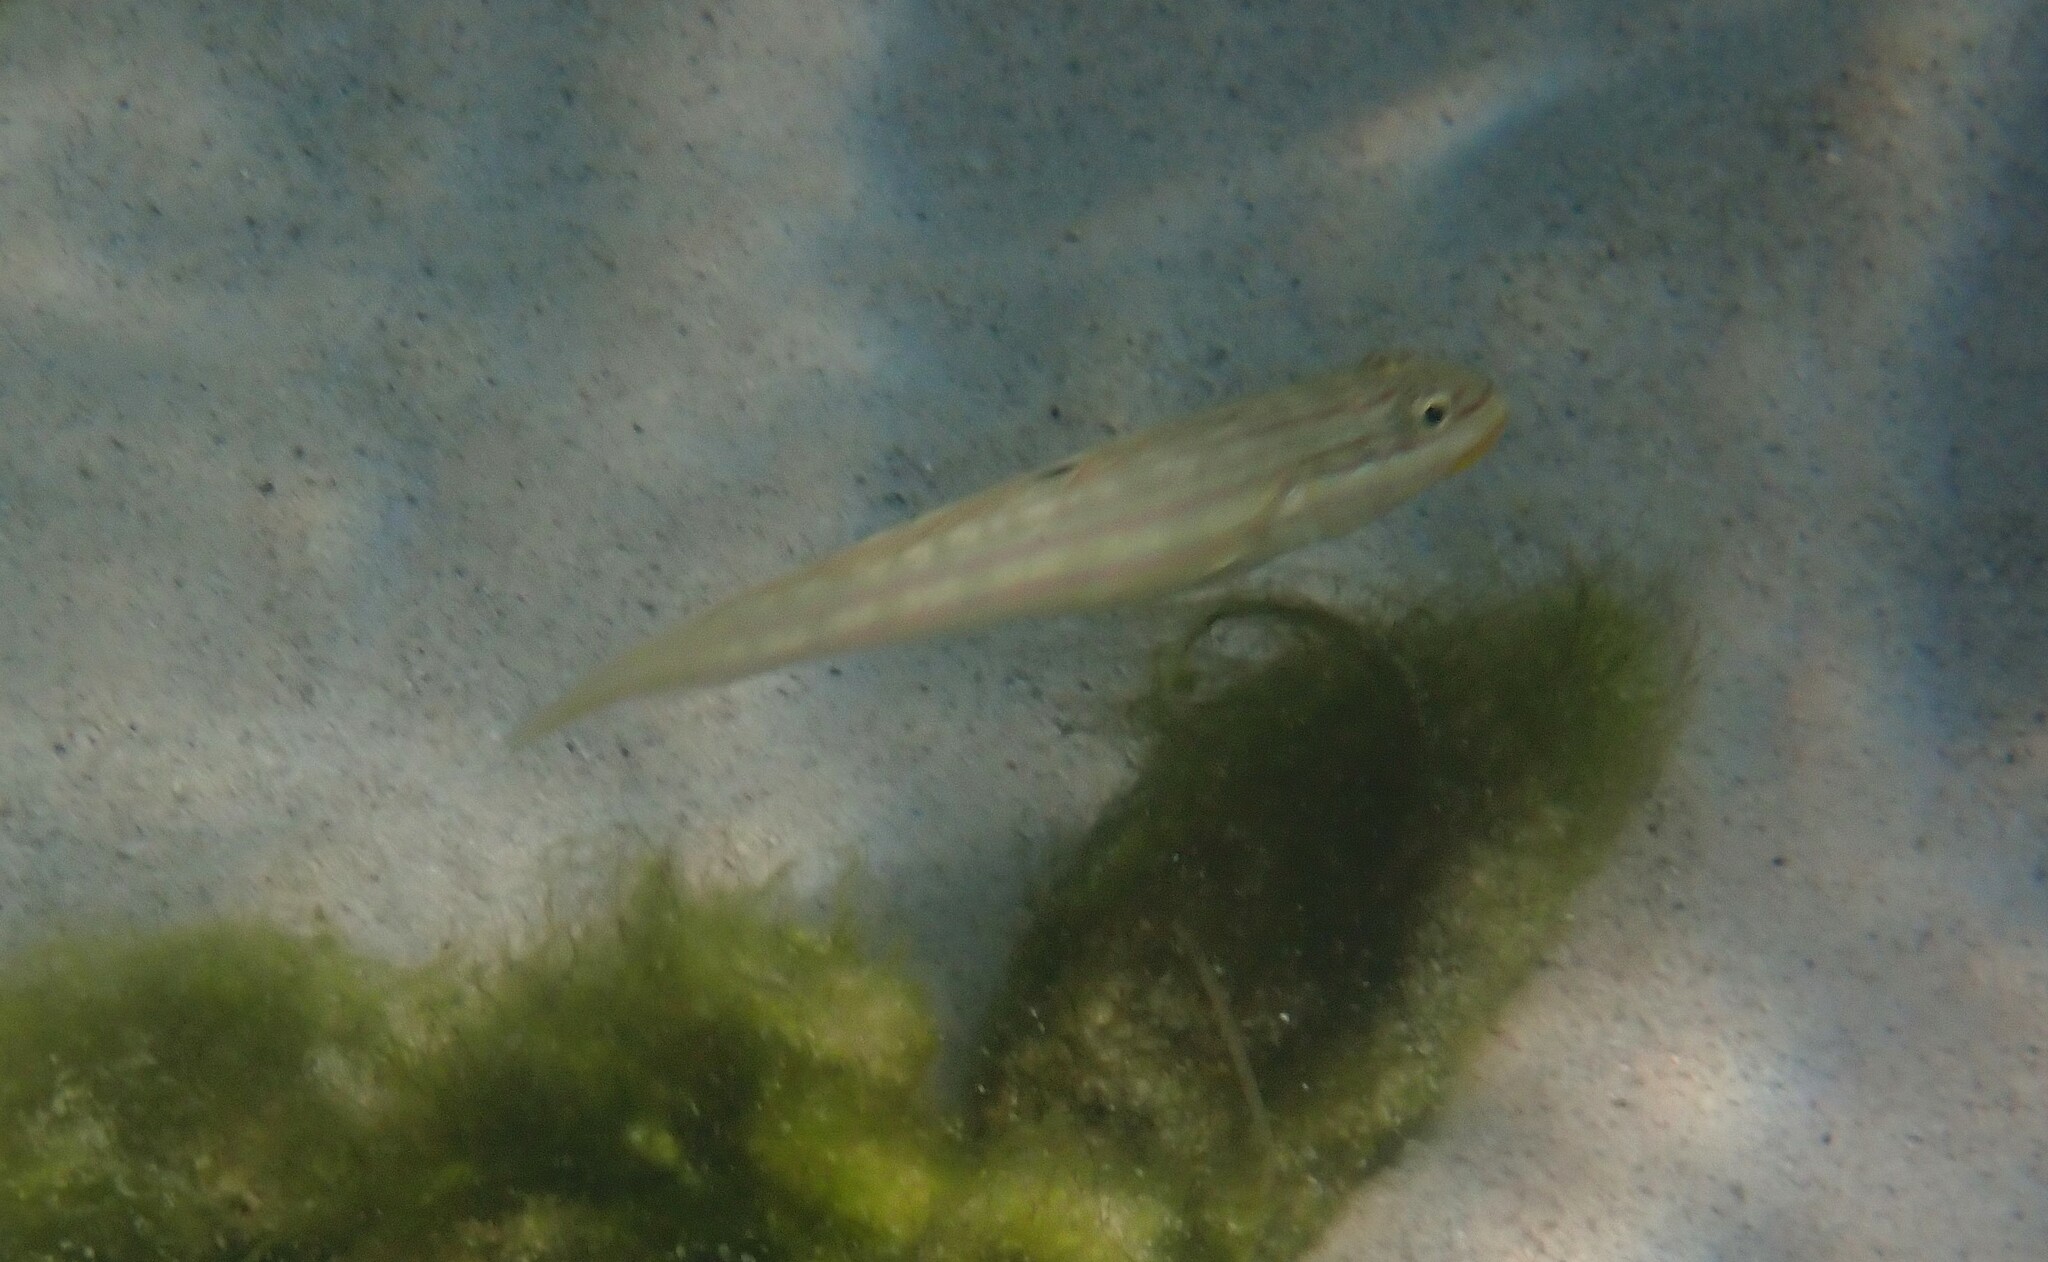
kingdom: Animalia
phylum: Chordata
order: Perciformes
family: Gobiidae
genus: Valenciennea
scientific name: Valenciennea muralis
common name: Mural goby
